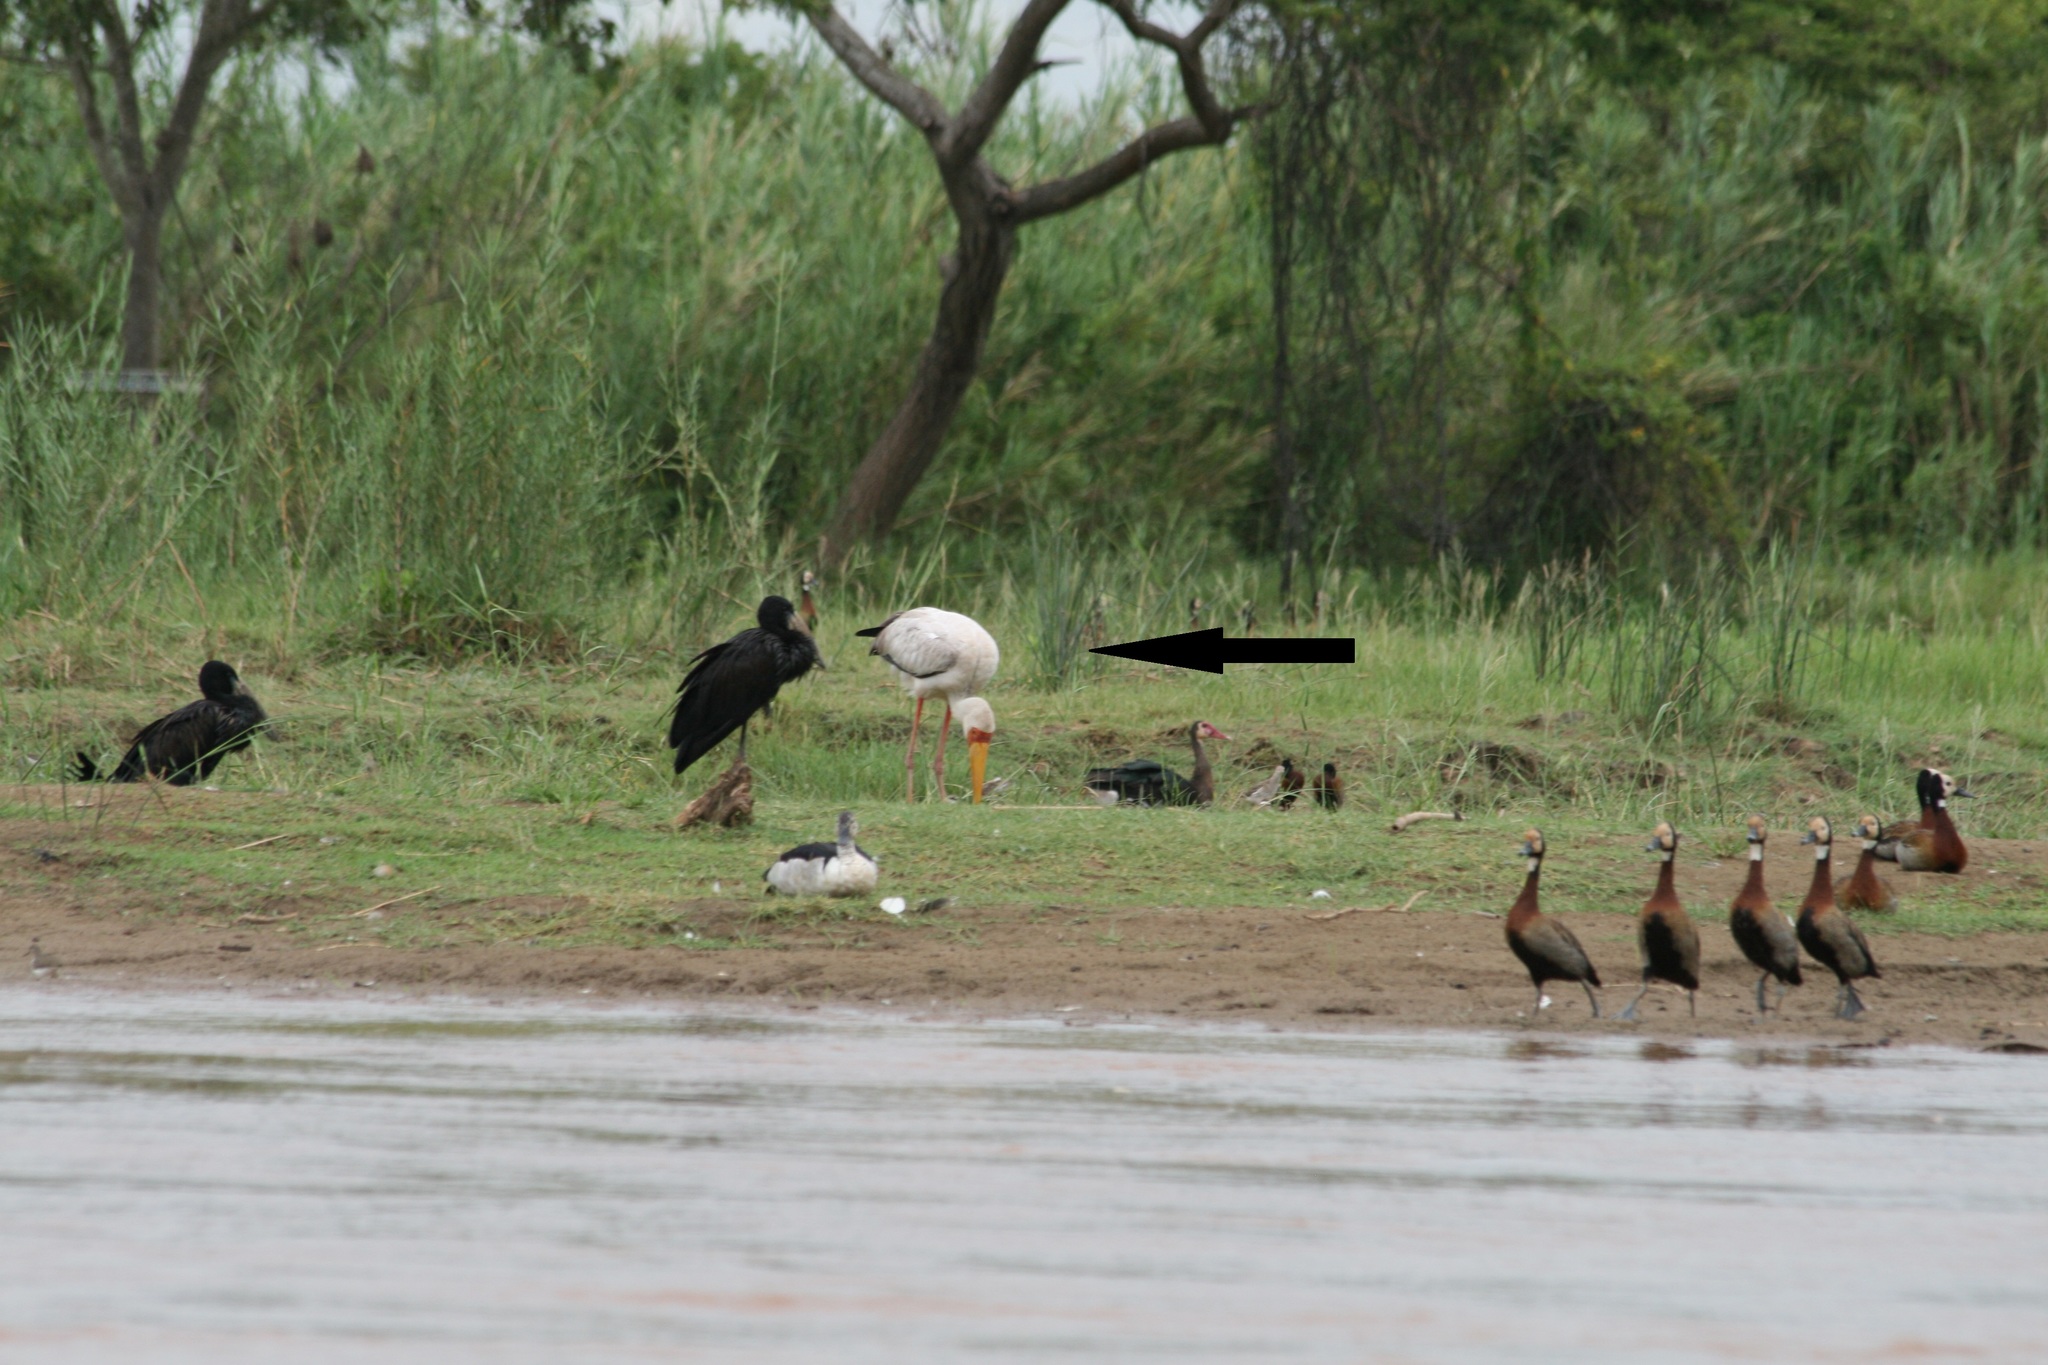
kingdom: Animalia
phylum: Chordata
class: Aves
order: Ciconiiformes
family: Ciconiidae
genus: Mycteria
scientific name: Mycteria ibis
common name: Yellow-billed stork
